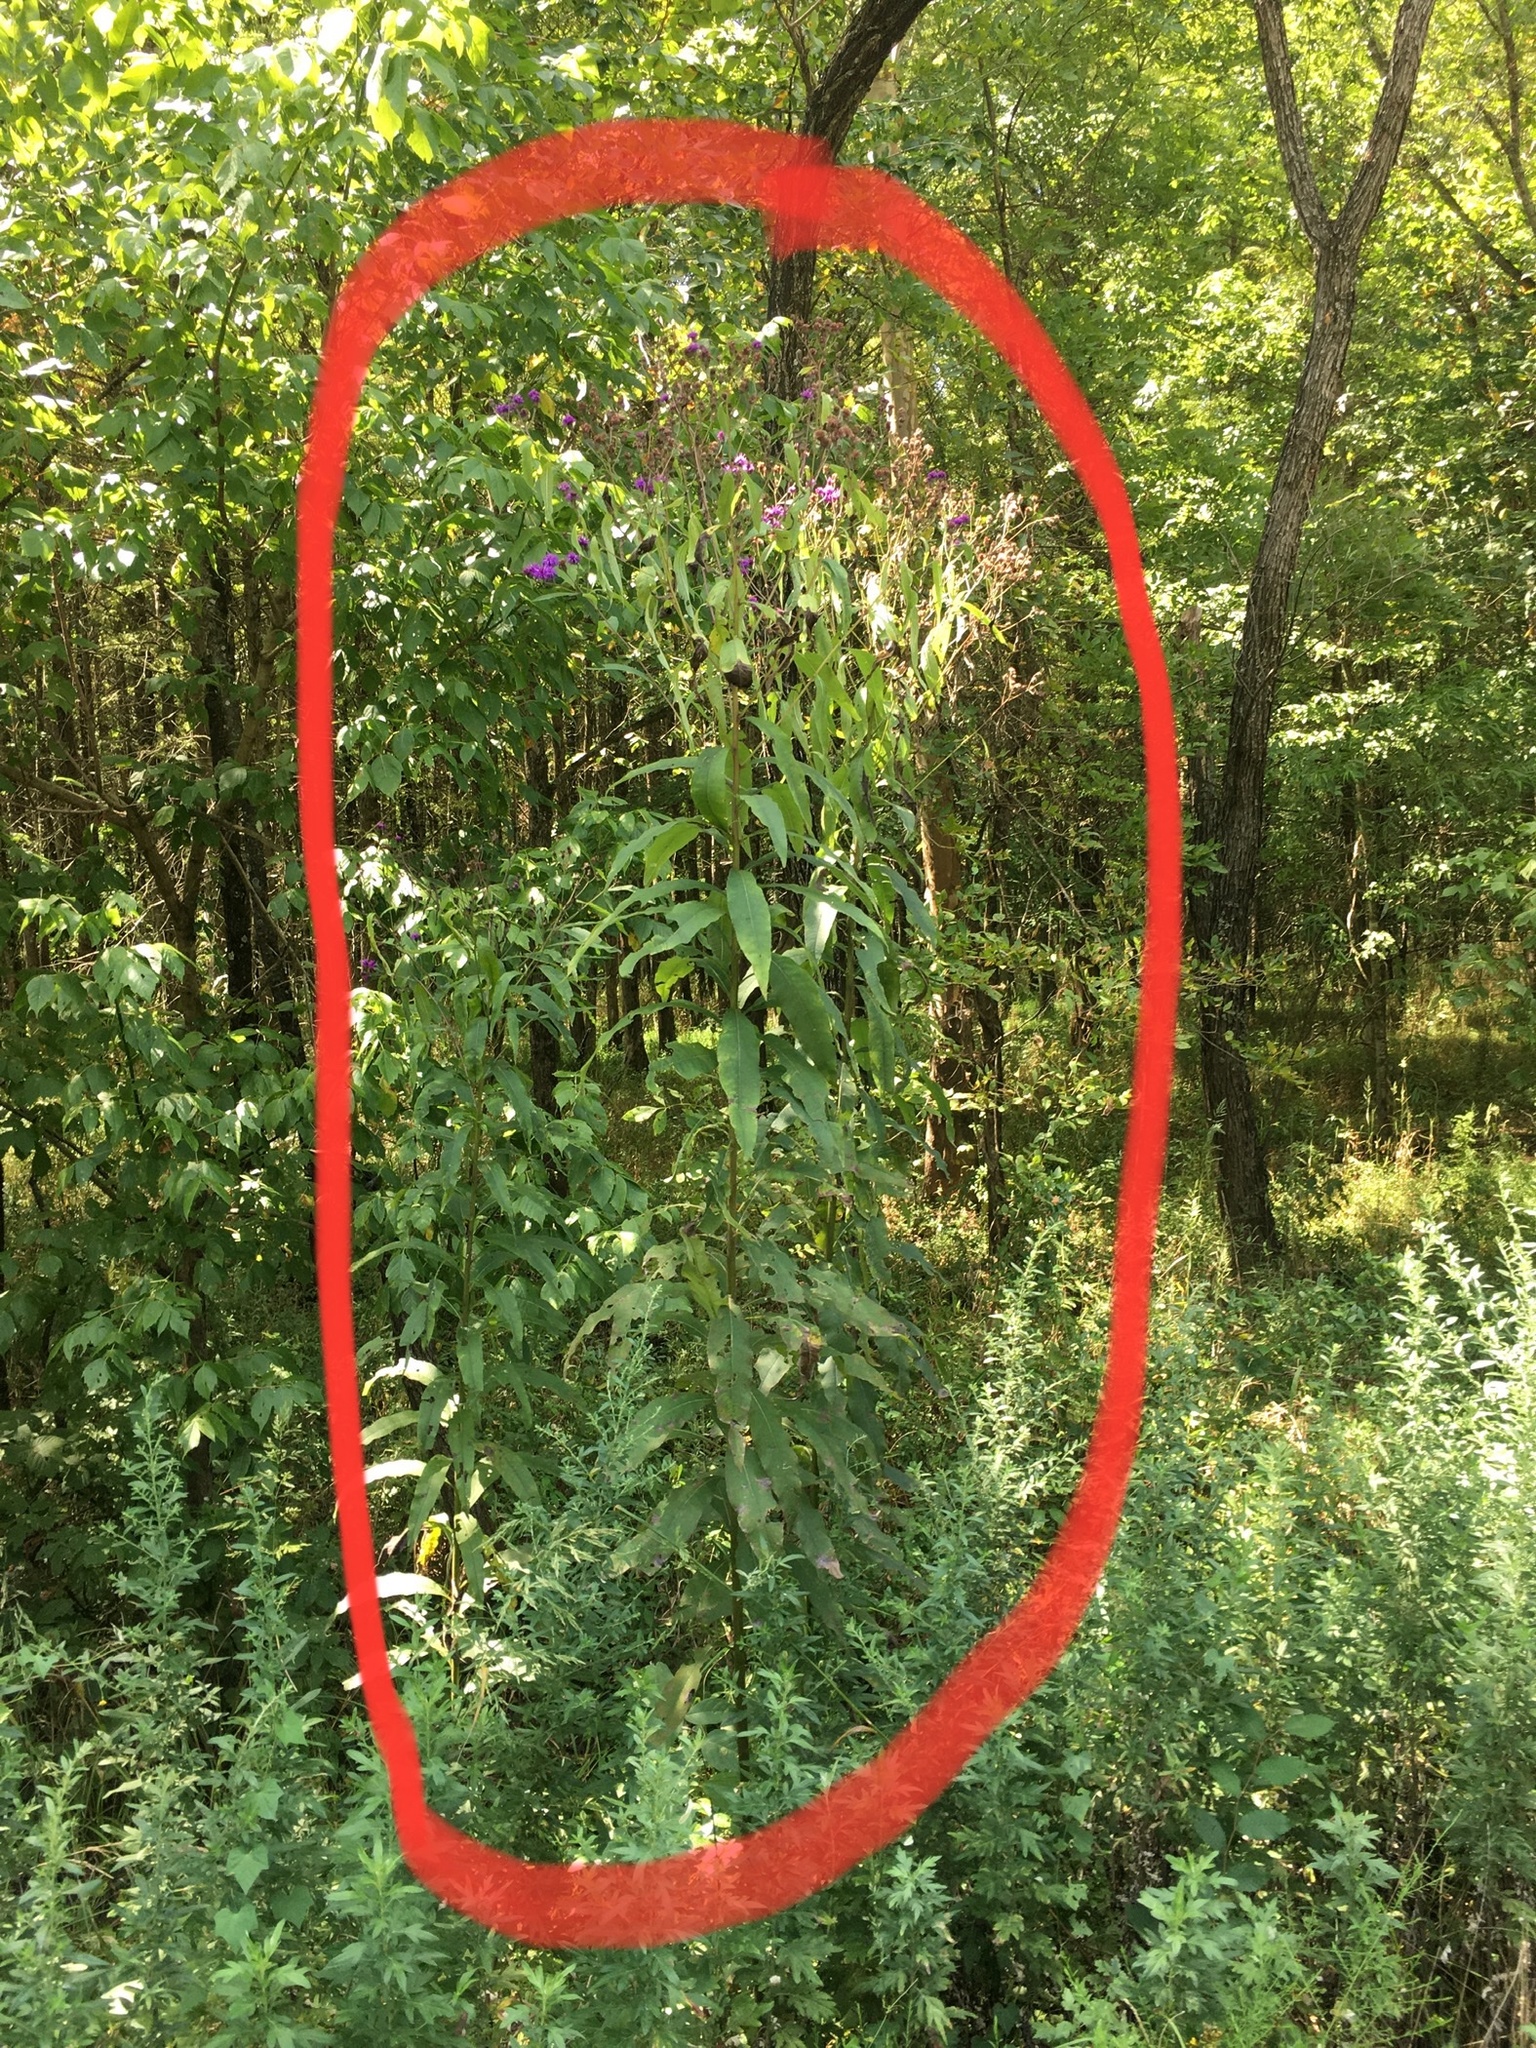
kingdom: Plantae
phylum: Tracheophyta
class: Magnoliopsida
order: Asterales
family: Asteraceae
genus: Vernonia
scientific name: Vernonia noveboracensis
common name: New york ironweed
